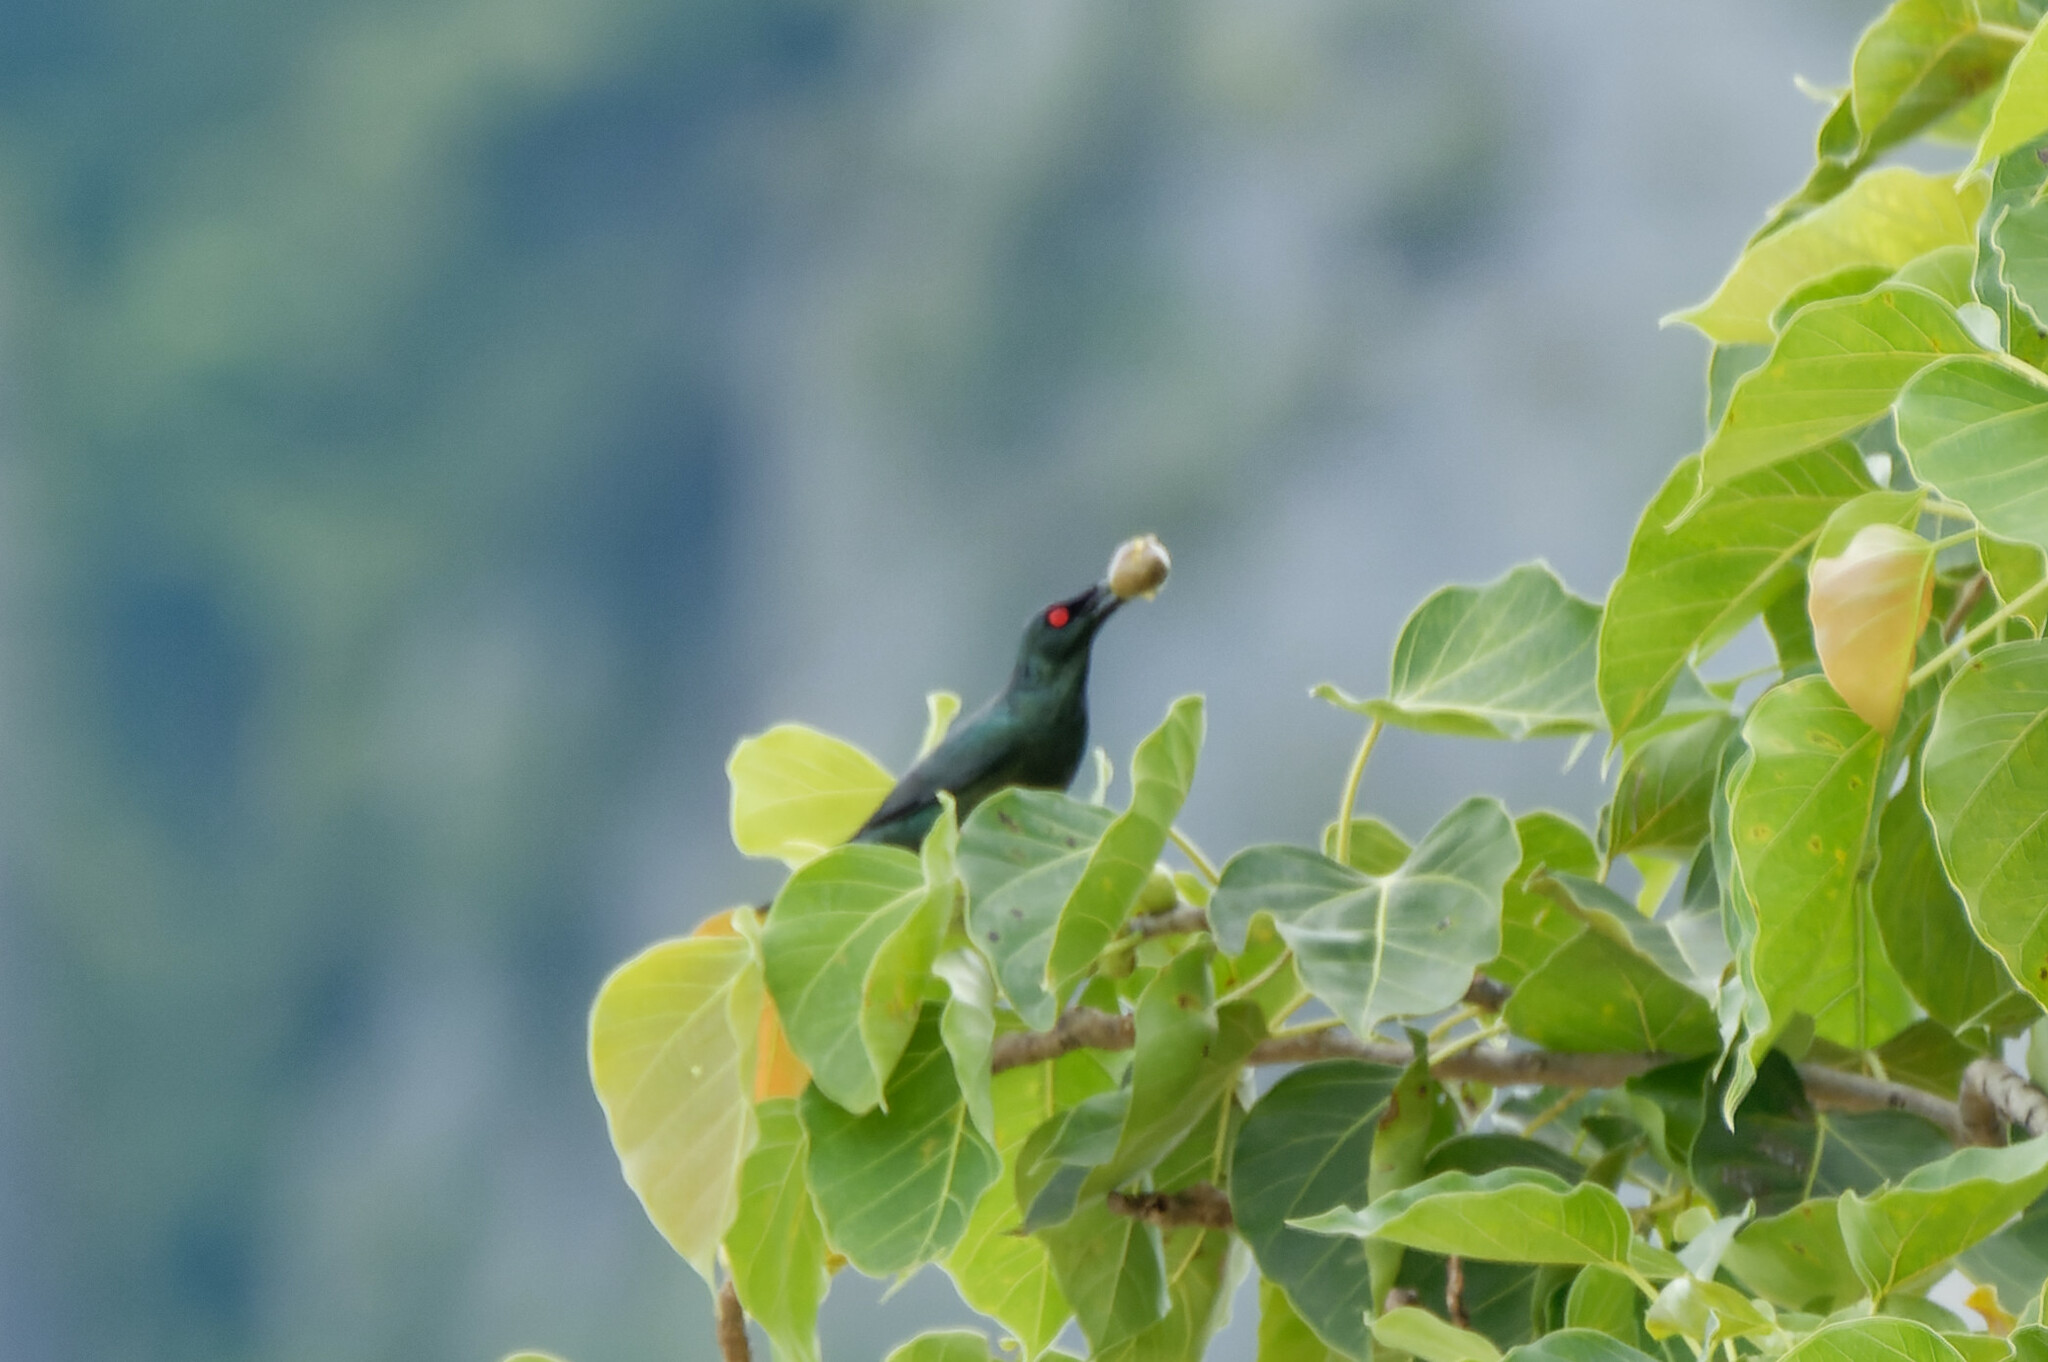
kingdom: Animalia
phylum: Chordata
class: Aves
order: Passeriformes
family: Sturnidae
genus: Aplonis
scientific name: Aplonis panayensis
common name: Asian glossy starling
